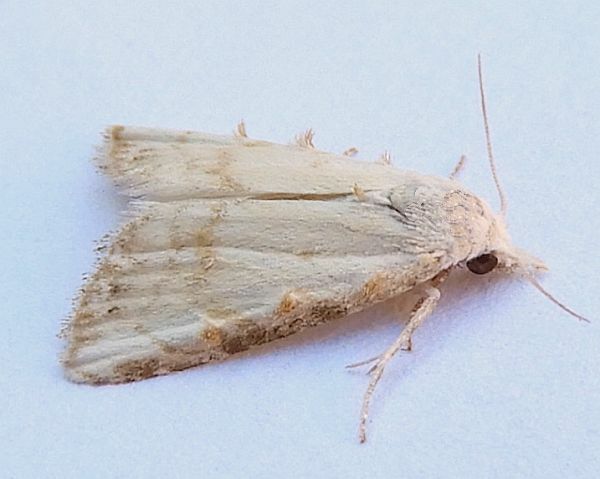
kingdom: Animalia
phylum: Arthropoda
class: Insecta
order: Lepidoptera
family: Nolidae
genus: Nola
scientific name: Nola cereella
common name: Sorghum webworm moth
